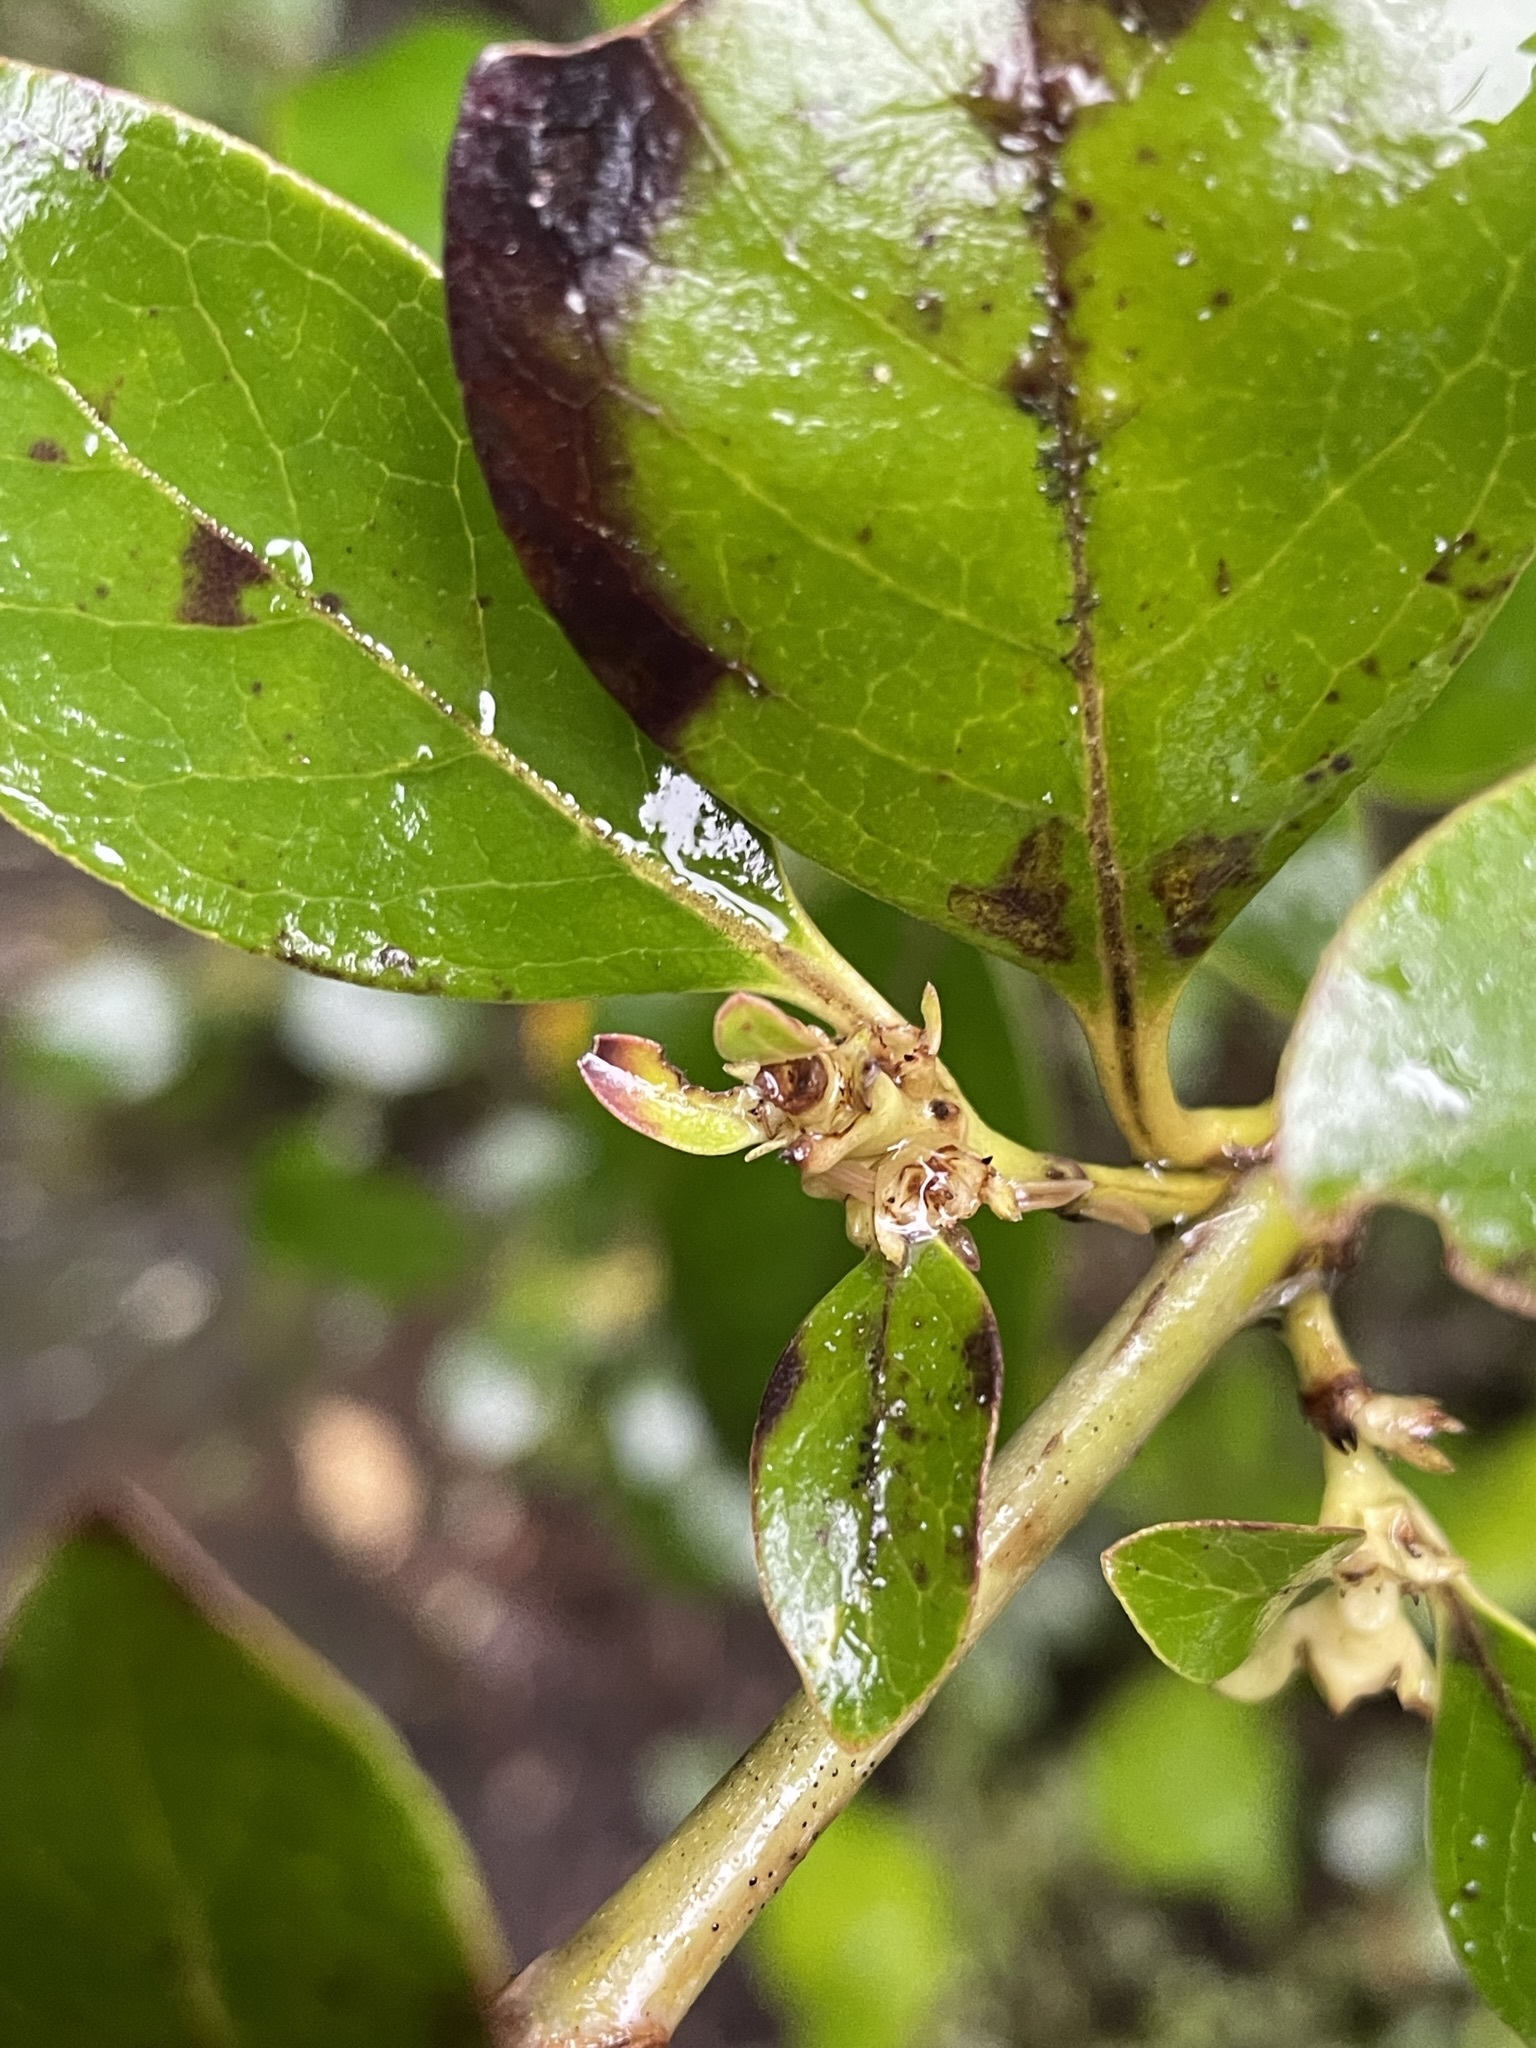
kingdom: Plantae
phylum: Tracheophyta
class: Magnoliopsida
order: Gentianales
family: Rubiaceae
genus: Coprosma
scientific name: Coprosma lucida
